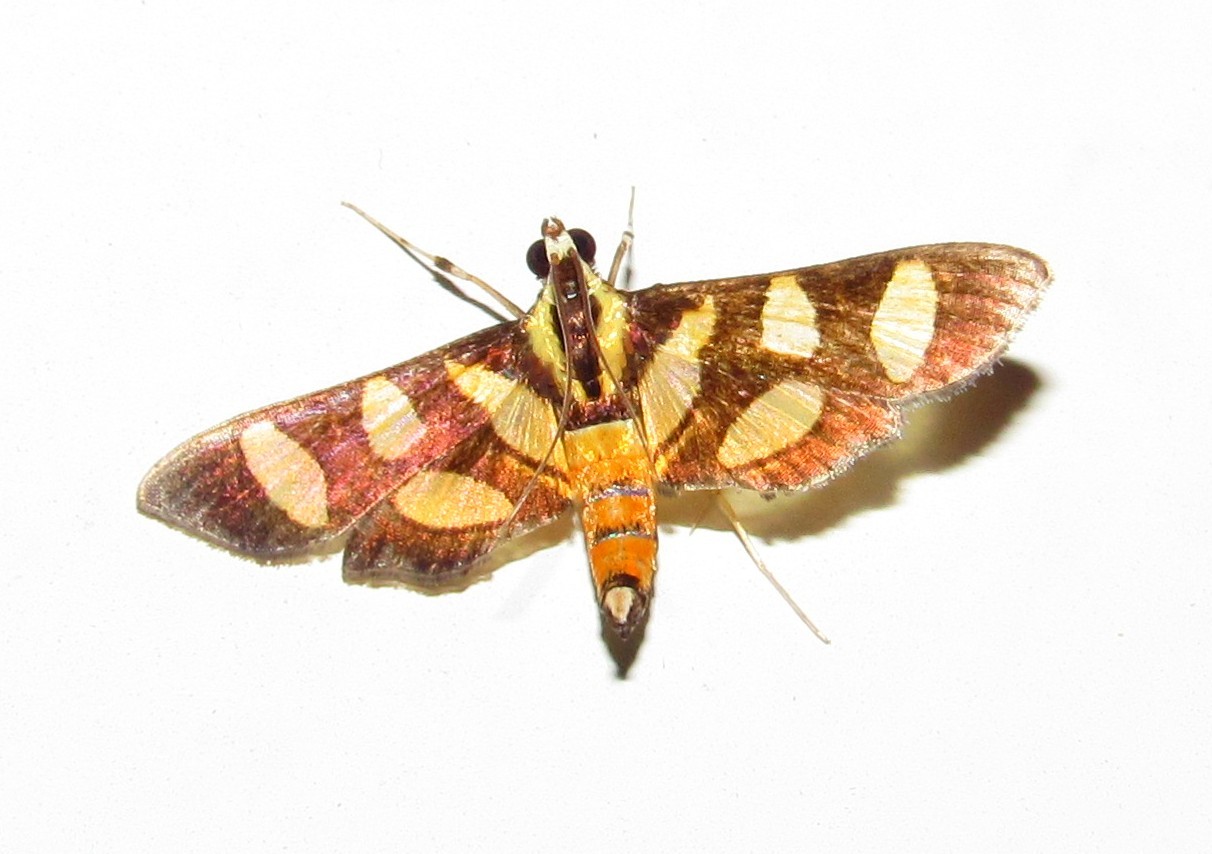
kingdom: Animalia
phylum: Arthropoda
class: Insecta
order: Lepidoptera
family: Crambidae
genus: Syngamia
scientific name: Syngamia florella
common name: Orange-spotted flower moth
